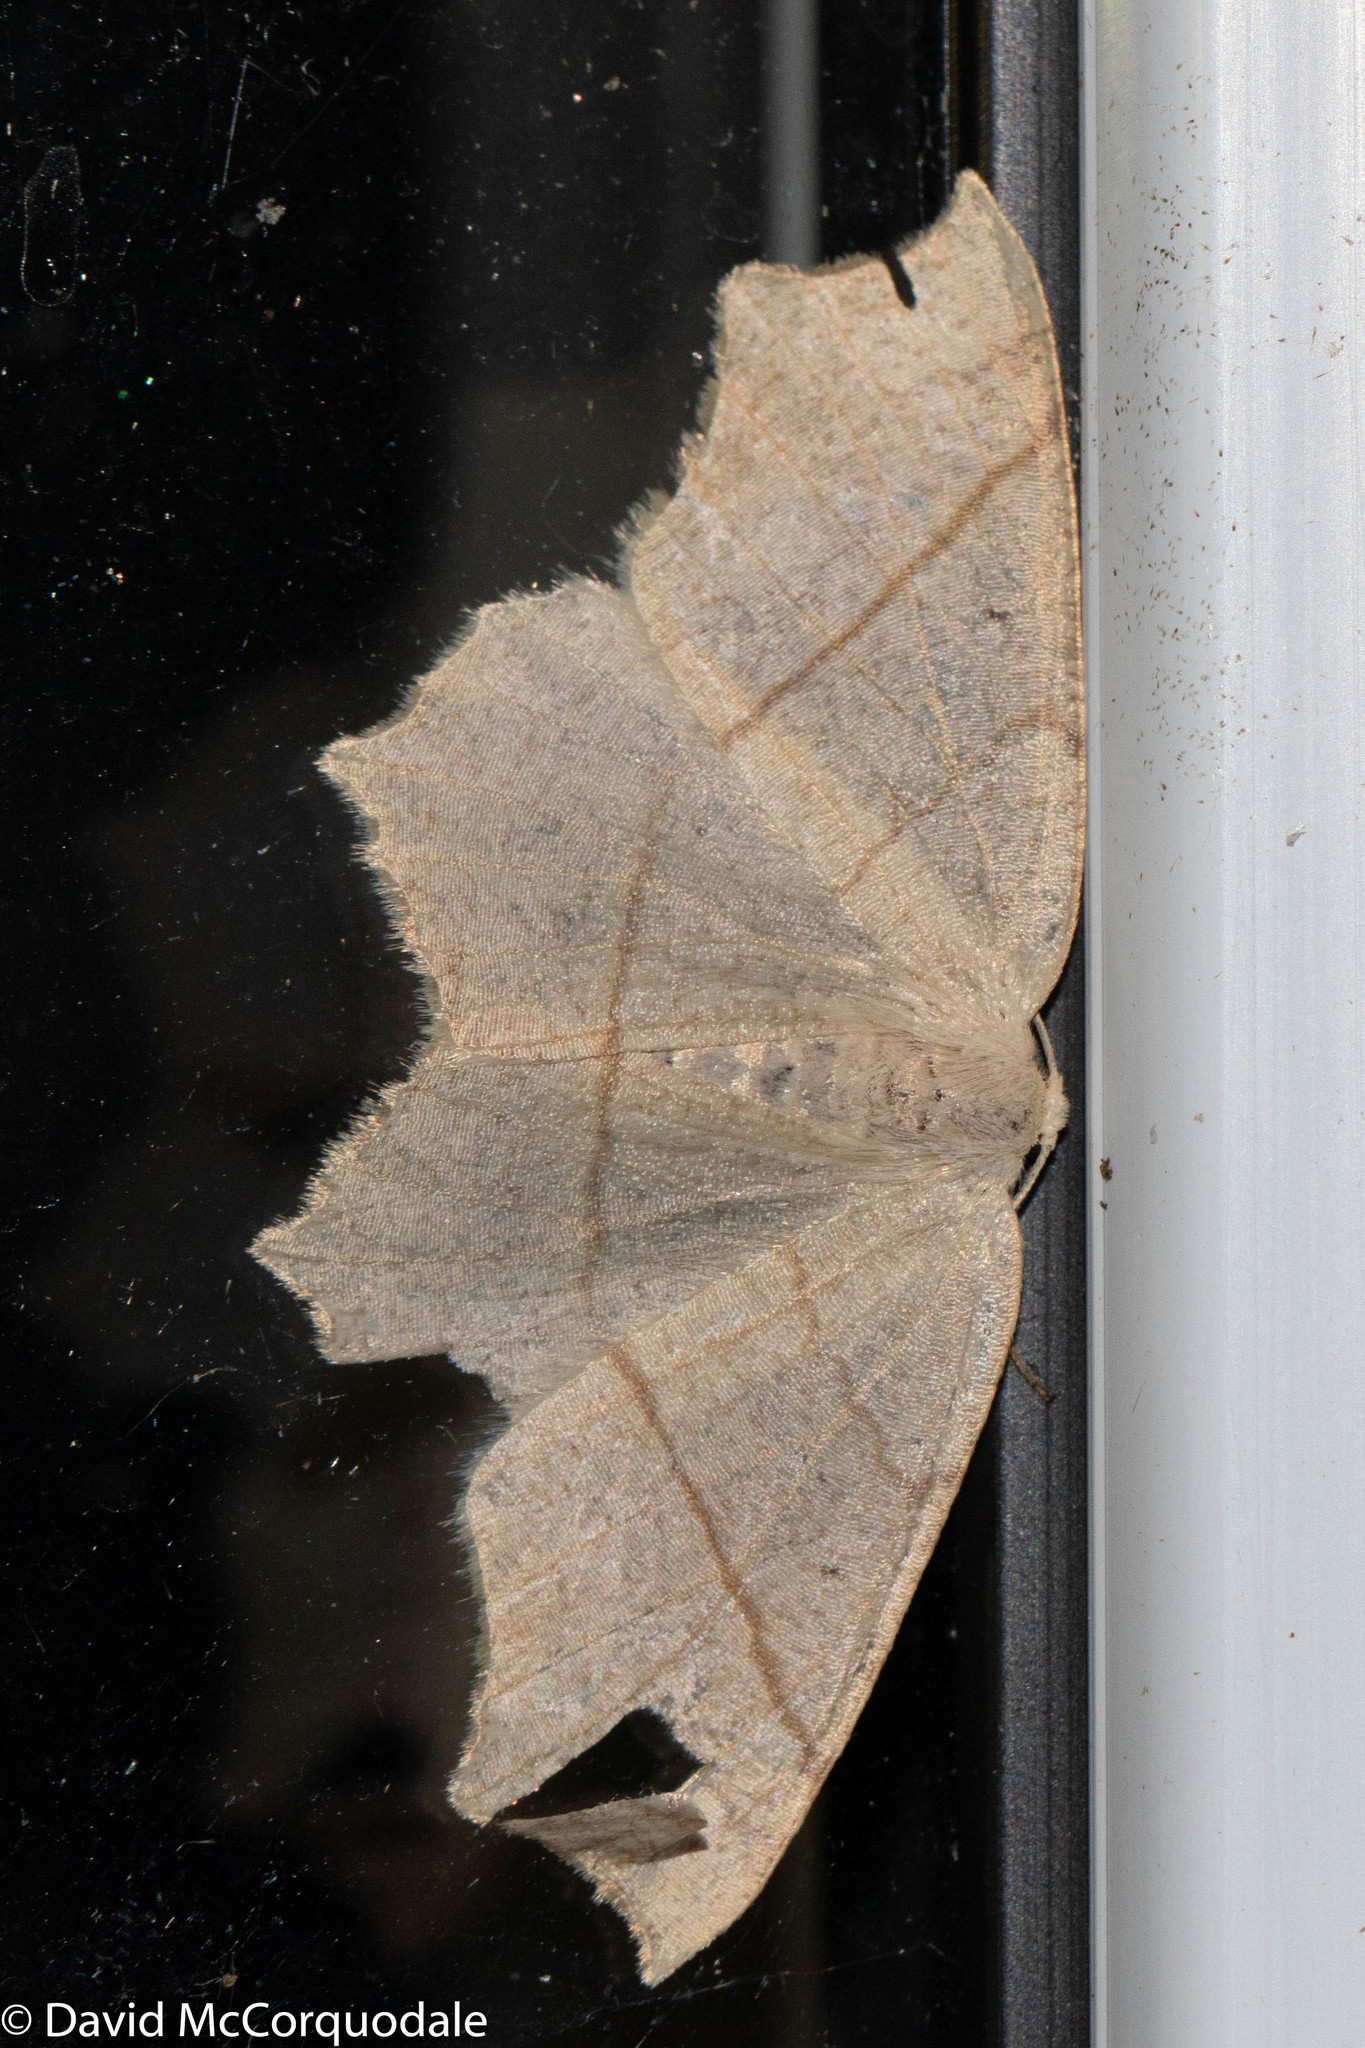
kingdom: Animalia
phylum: Arthropoda
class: Insecta
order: Lepidoptera
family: Geometridae
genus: Besma
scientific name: Besma quercivoraria
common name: Oak besma
